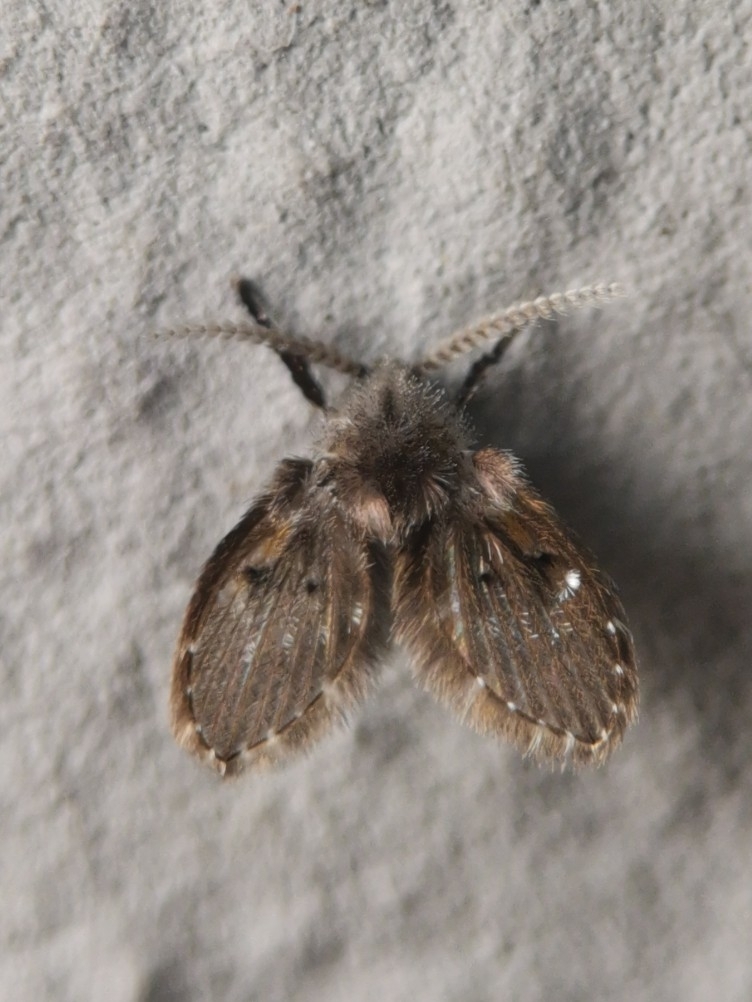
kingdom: Animalia
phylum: Arthropoda
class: Insecta
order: Diptera
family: Psychodidae
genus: Clogmia
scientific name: Clogmia albipunctatus
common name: White-spotted moth fly
